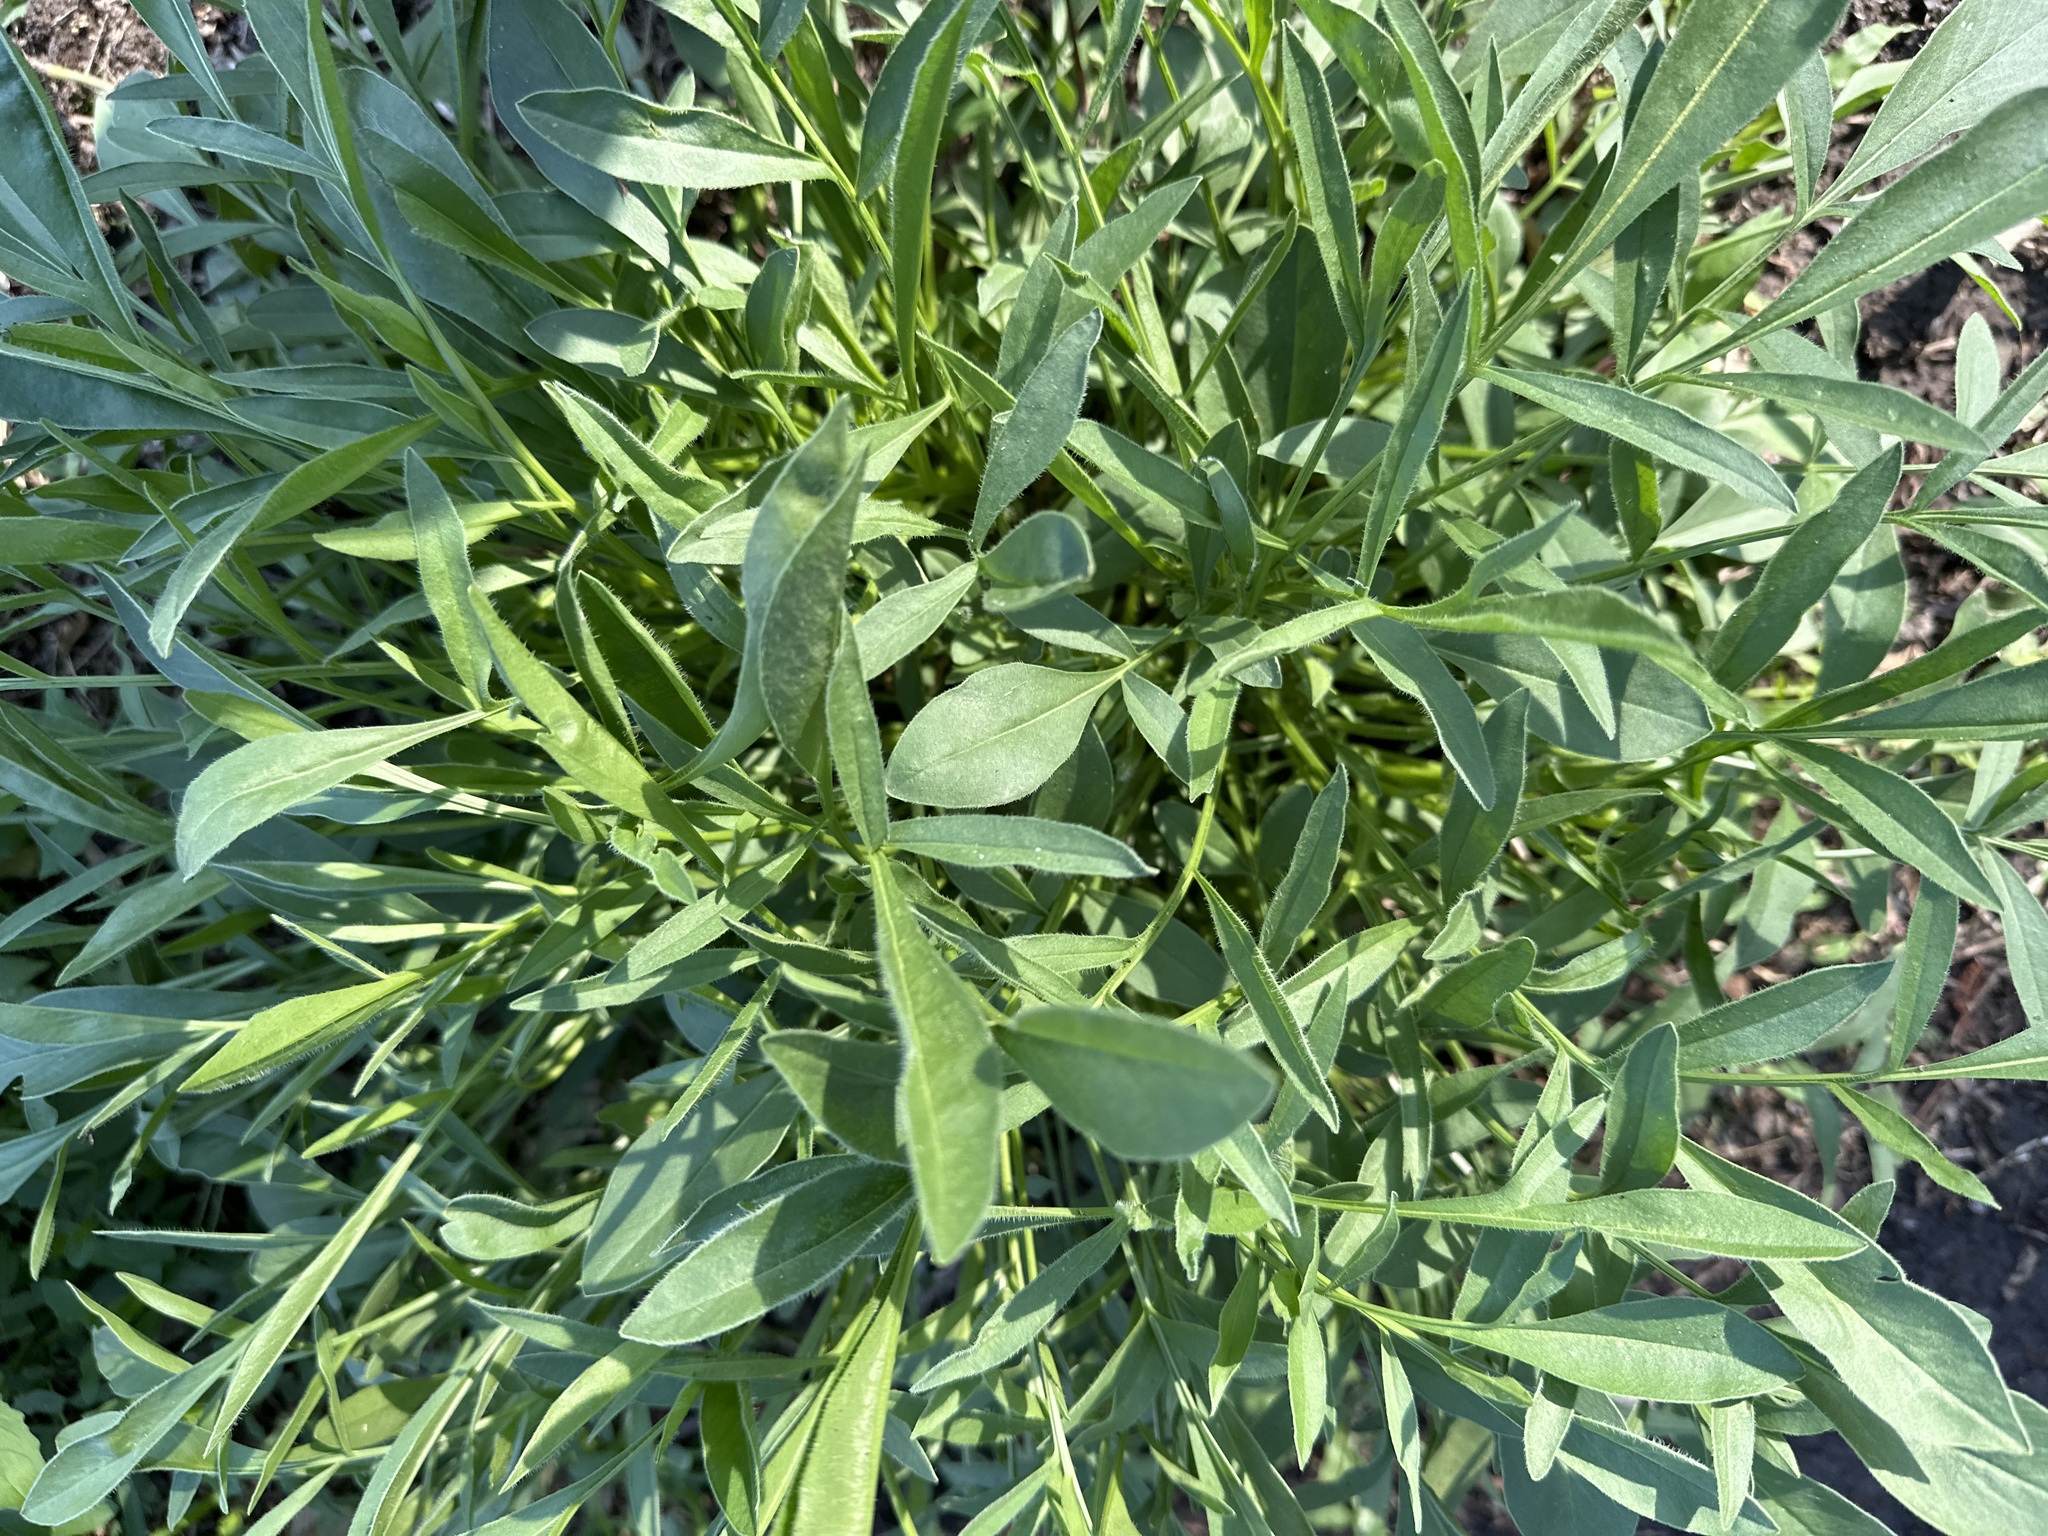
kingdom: Plantae
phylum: Tracheophyta
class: Magnoliopsida
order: Asterales
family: Asteraceae
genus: Coreopsis
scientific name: Coreopsis lanceolata
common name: Garden coreopsis
